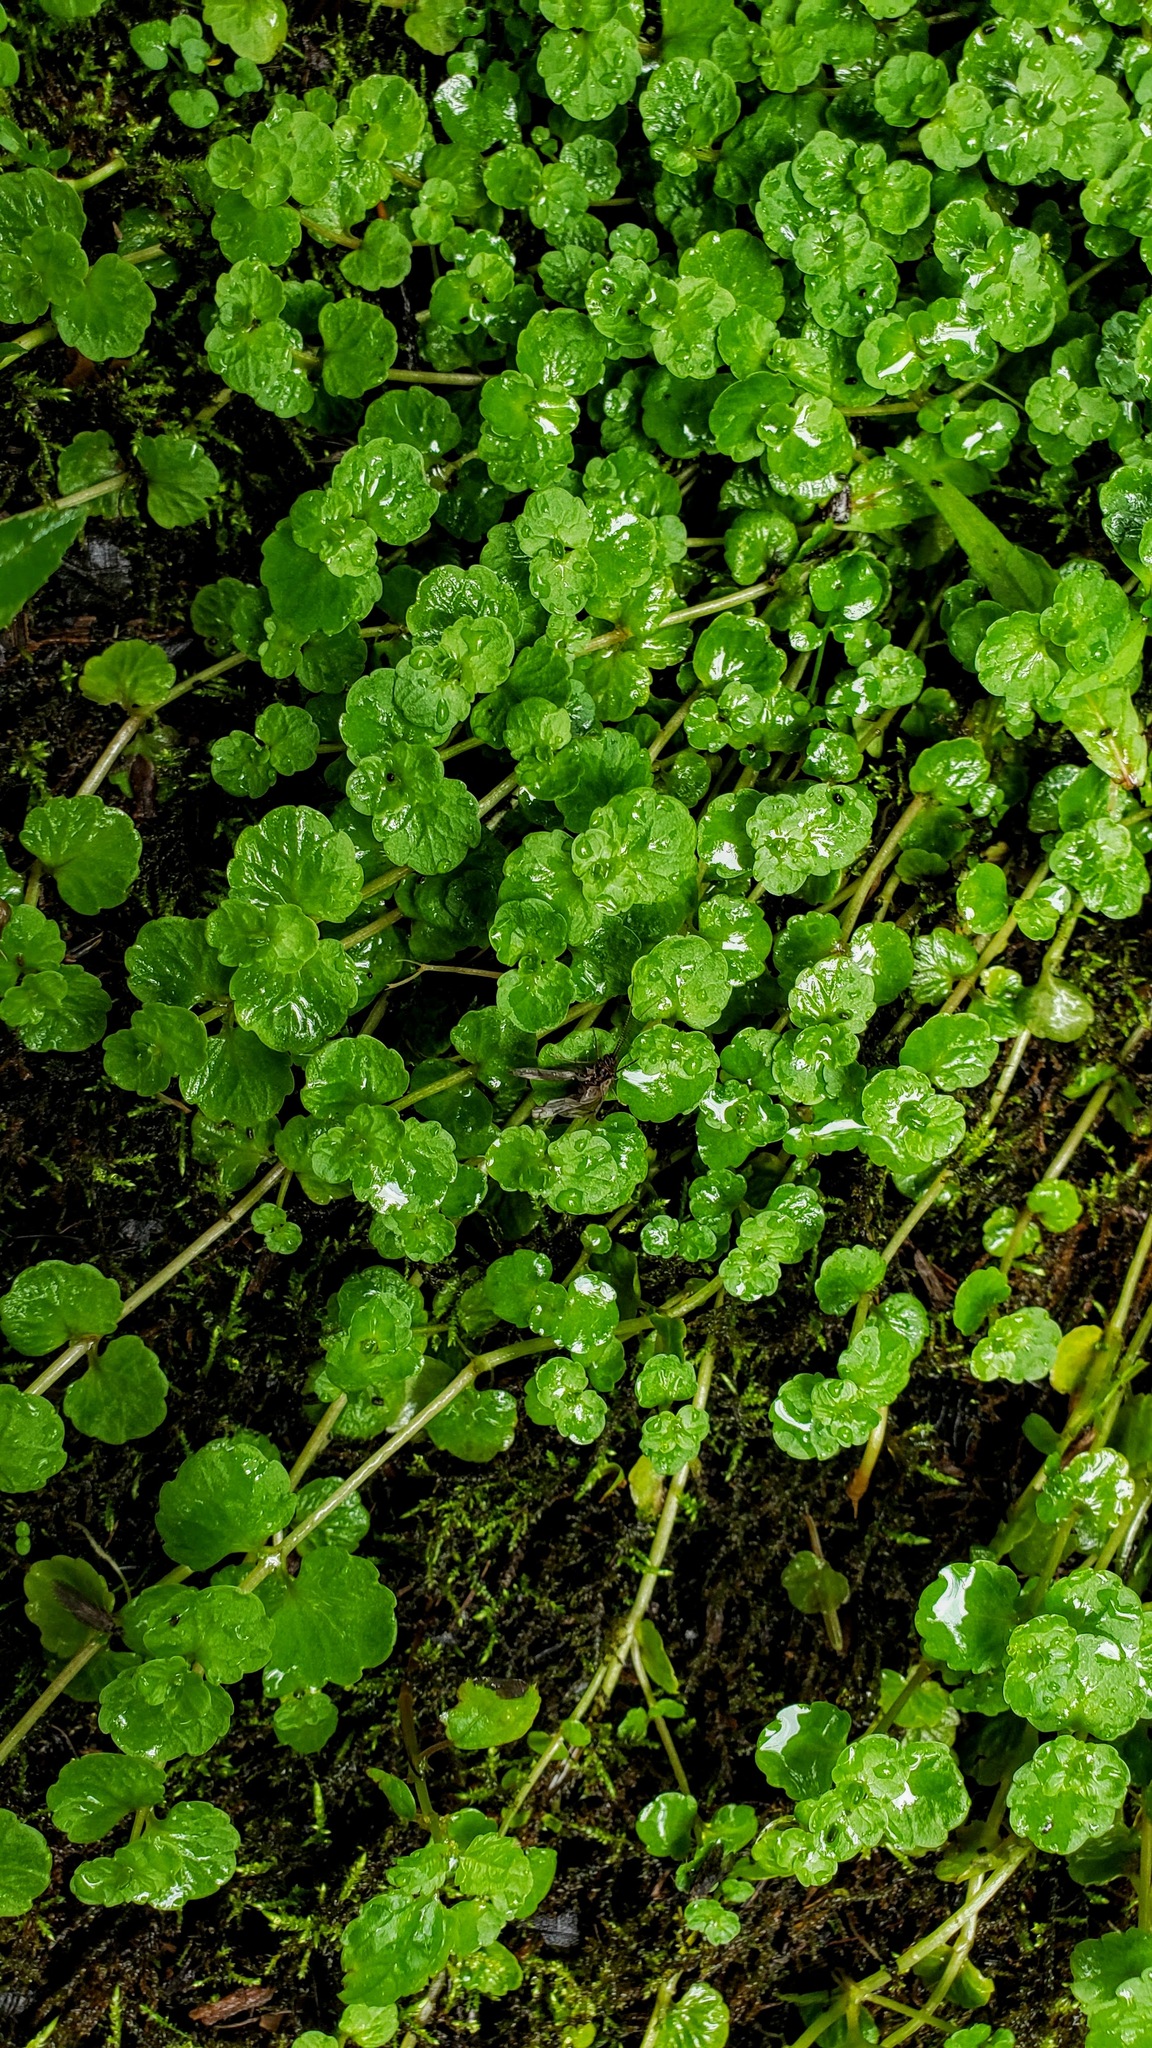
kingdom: Plantae
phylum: Tracheophyta
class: Magnoliopsida
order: Saxifragales
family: Saxifragaceae
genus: Chrysosplenium
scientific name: Chrysosplenium americanum
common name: American golden-saxifrage
